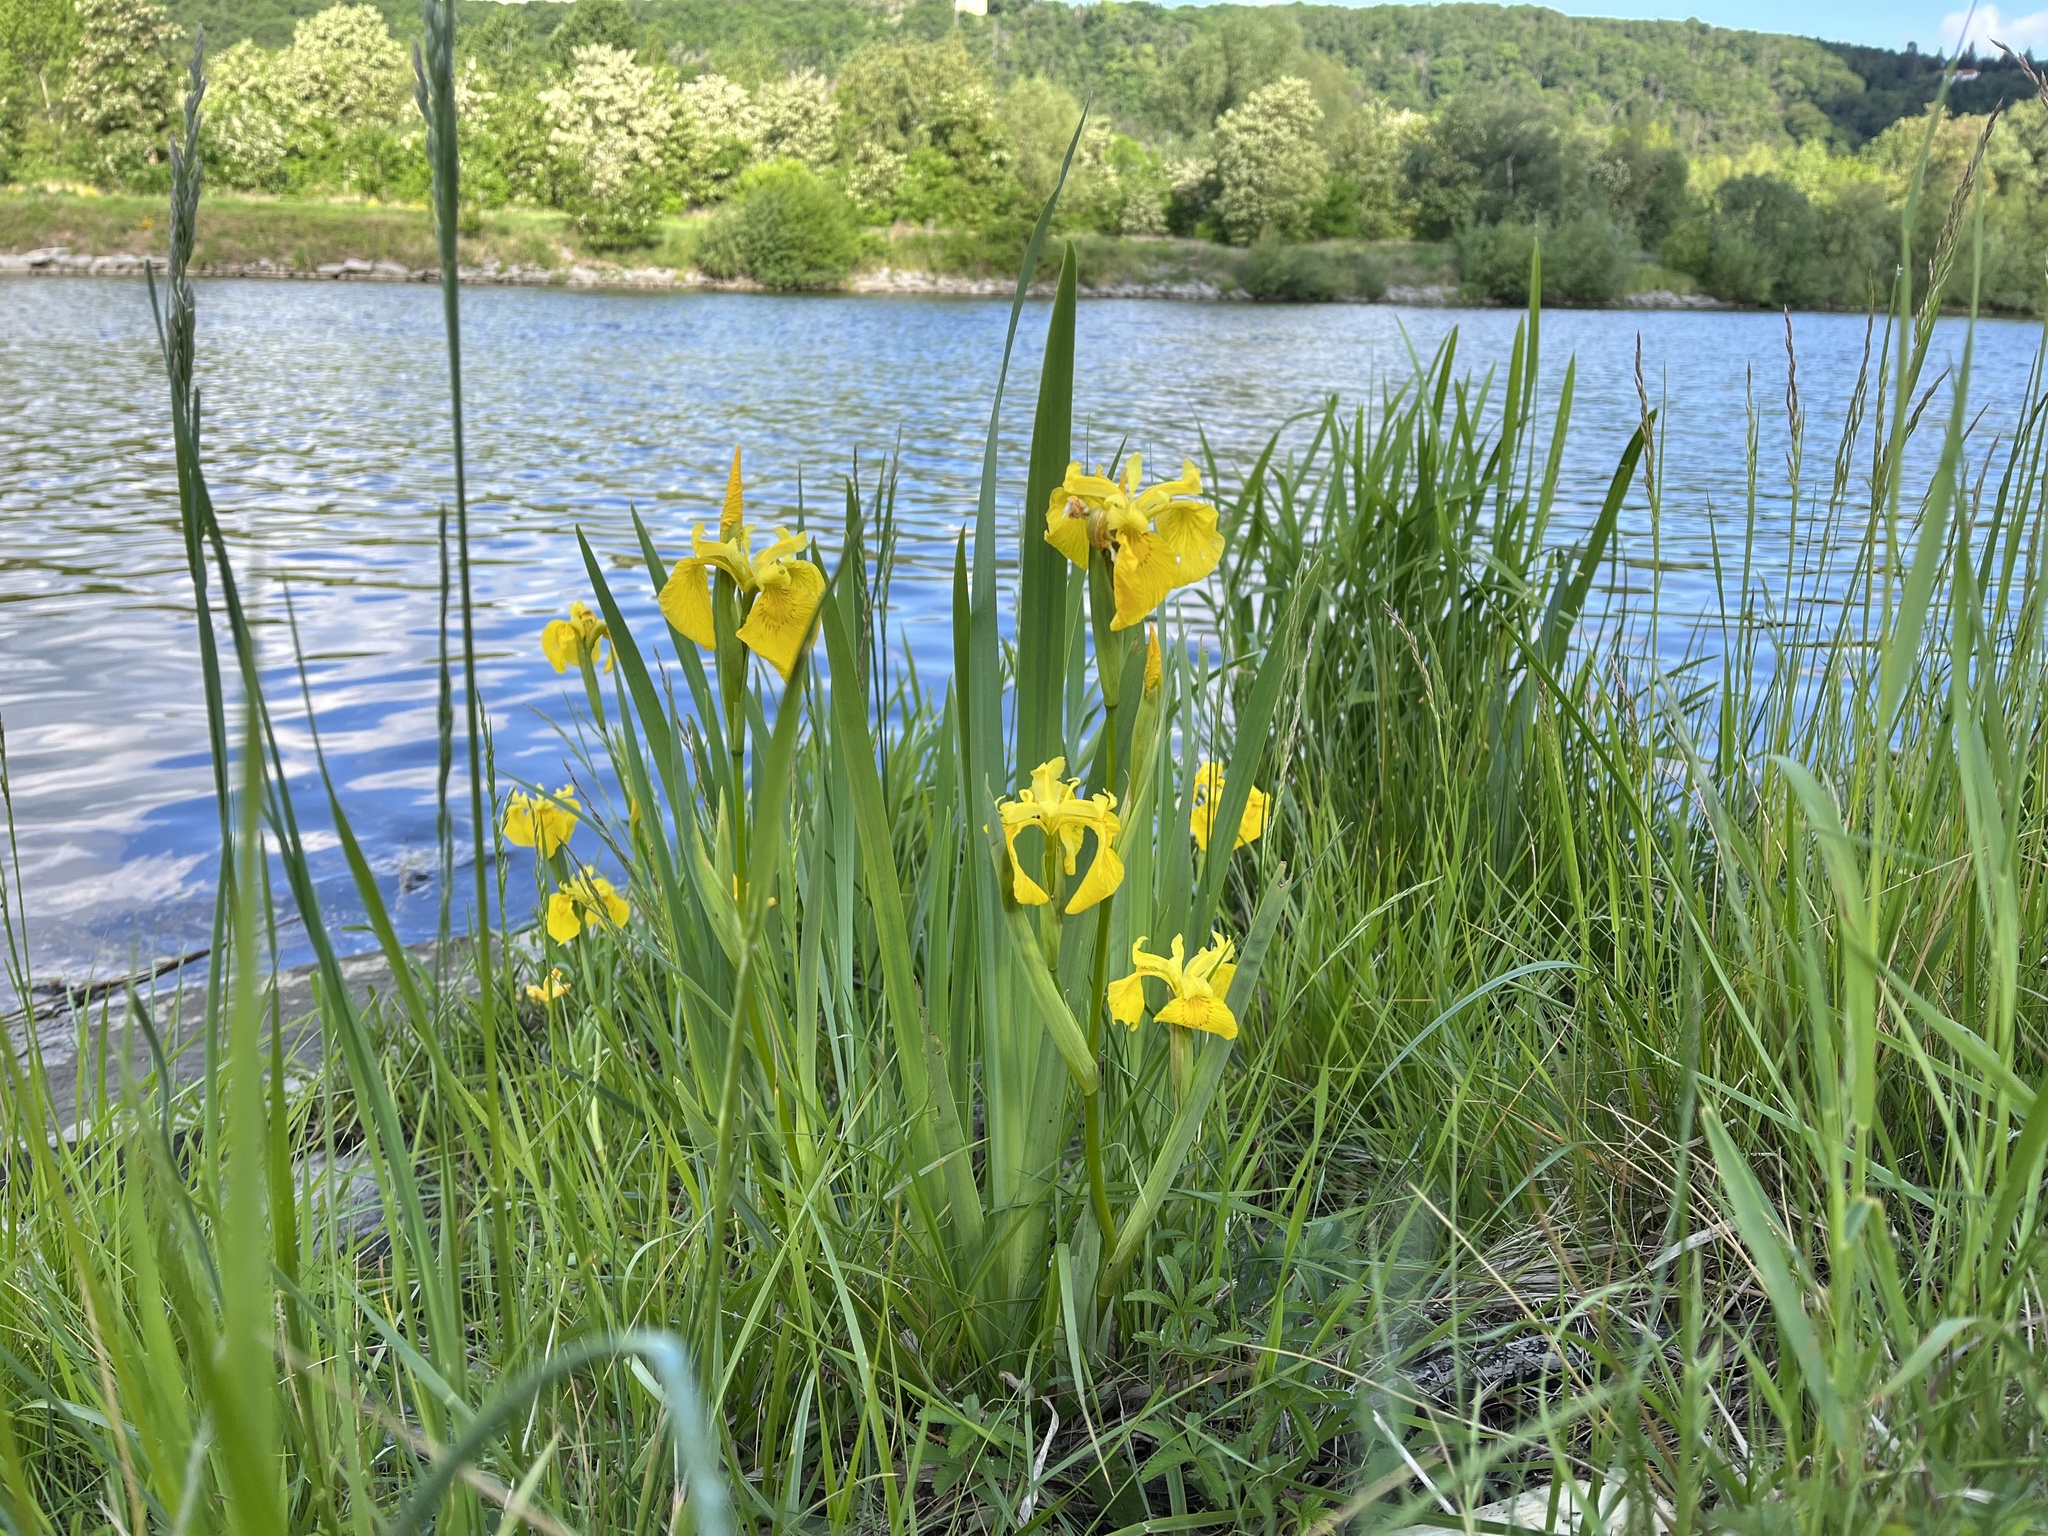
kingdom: Plantae
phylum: Tracheophyta
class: Liliopsida
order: Asparagales
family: Iridaceae
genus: Iris
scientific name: Iris pseudacorus
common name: Yellow flag
